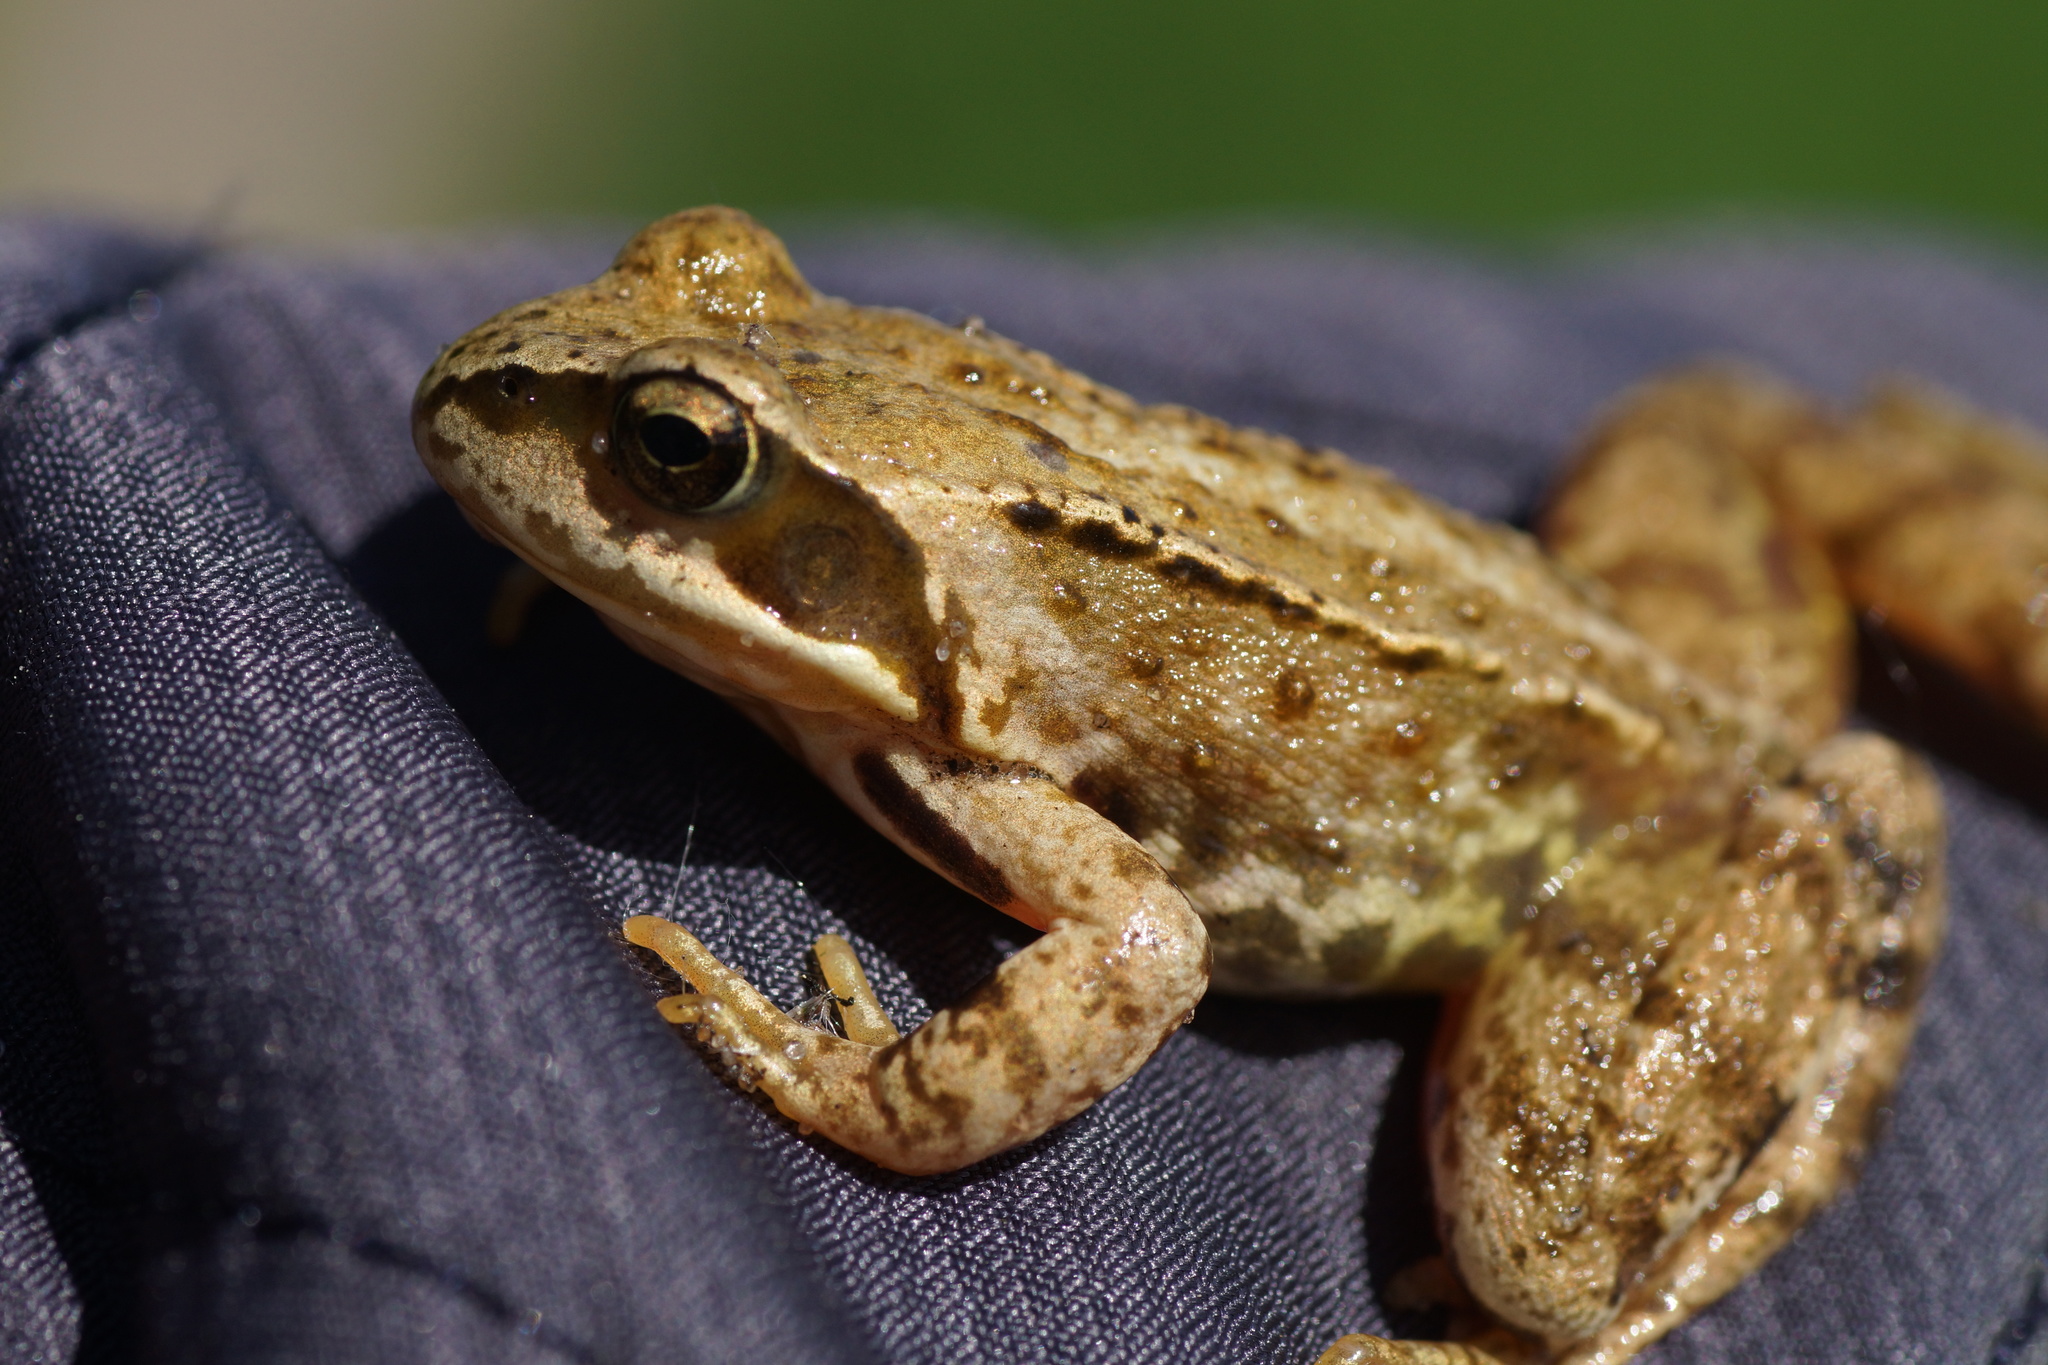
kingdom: Animalia
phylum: Chordata
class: Amphibia
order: Anura
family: Ranidae
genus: Rana
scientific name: Rana temporaria
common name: Common frog
